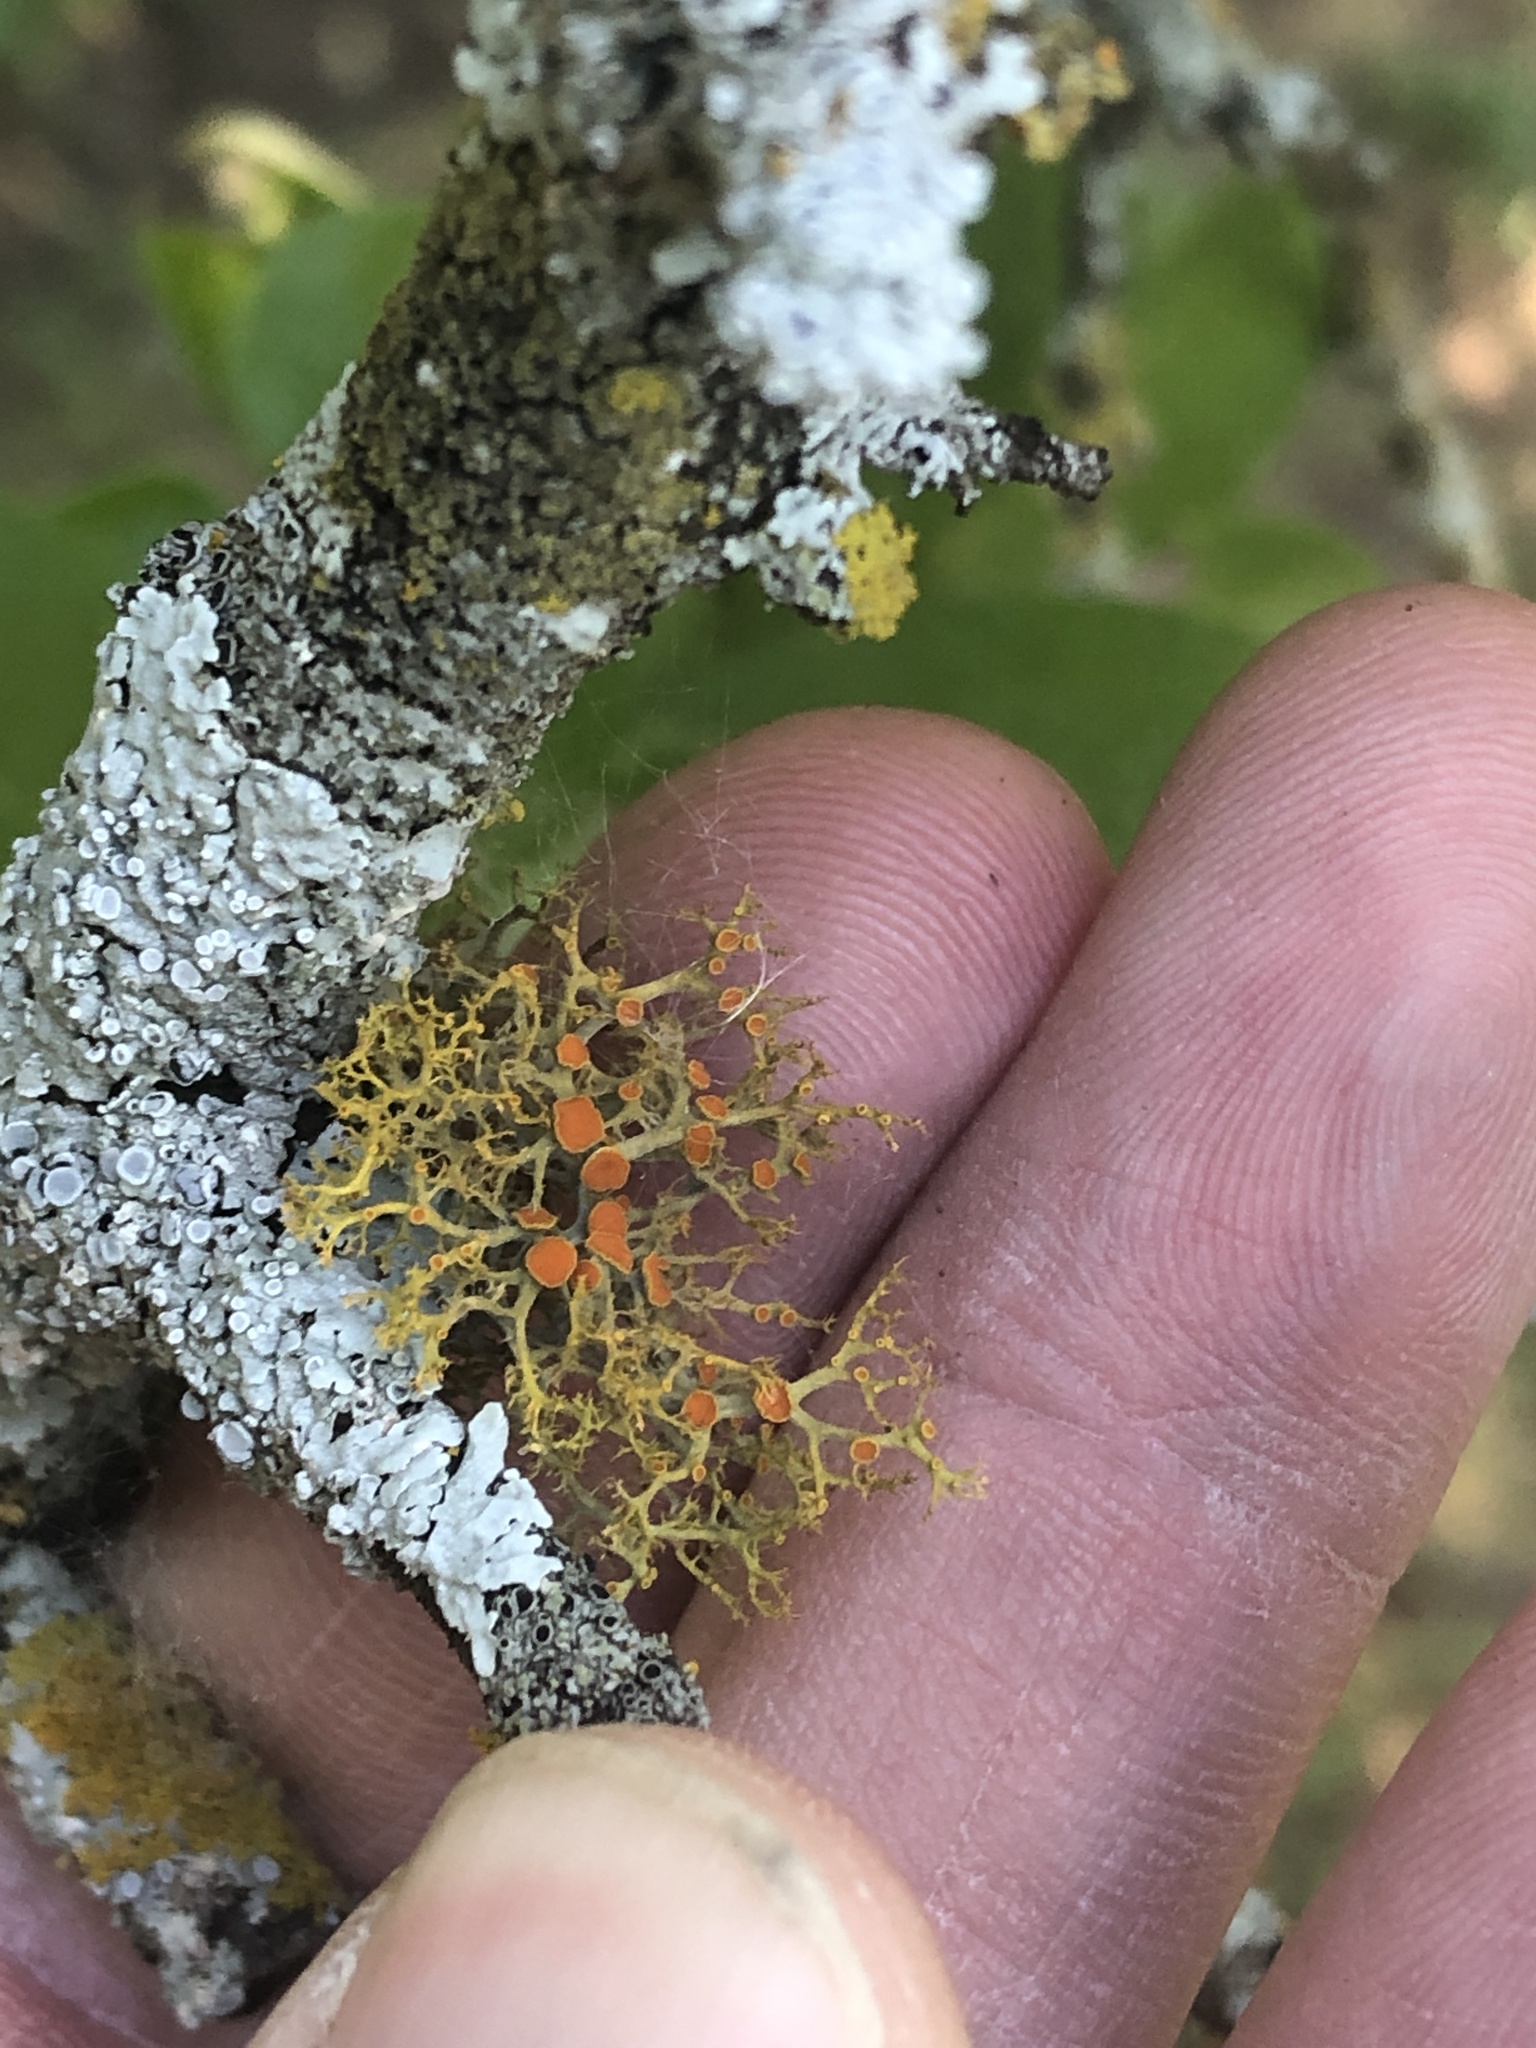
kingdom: Fungi
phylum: Ascomycota
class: Lecanoromycetes
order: Teloschistales
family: Teloschistaceae
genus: Teloschistes
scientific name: Teloschistes exilis
